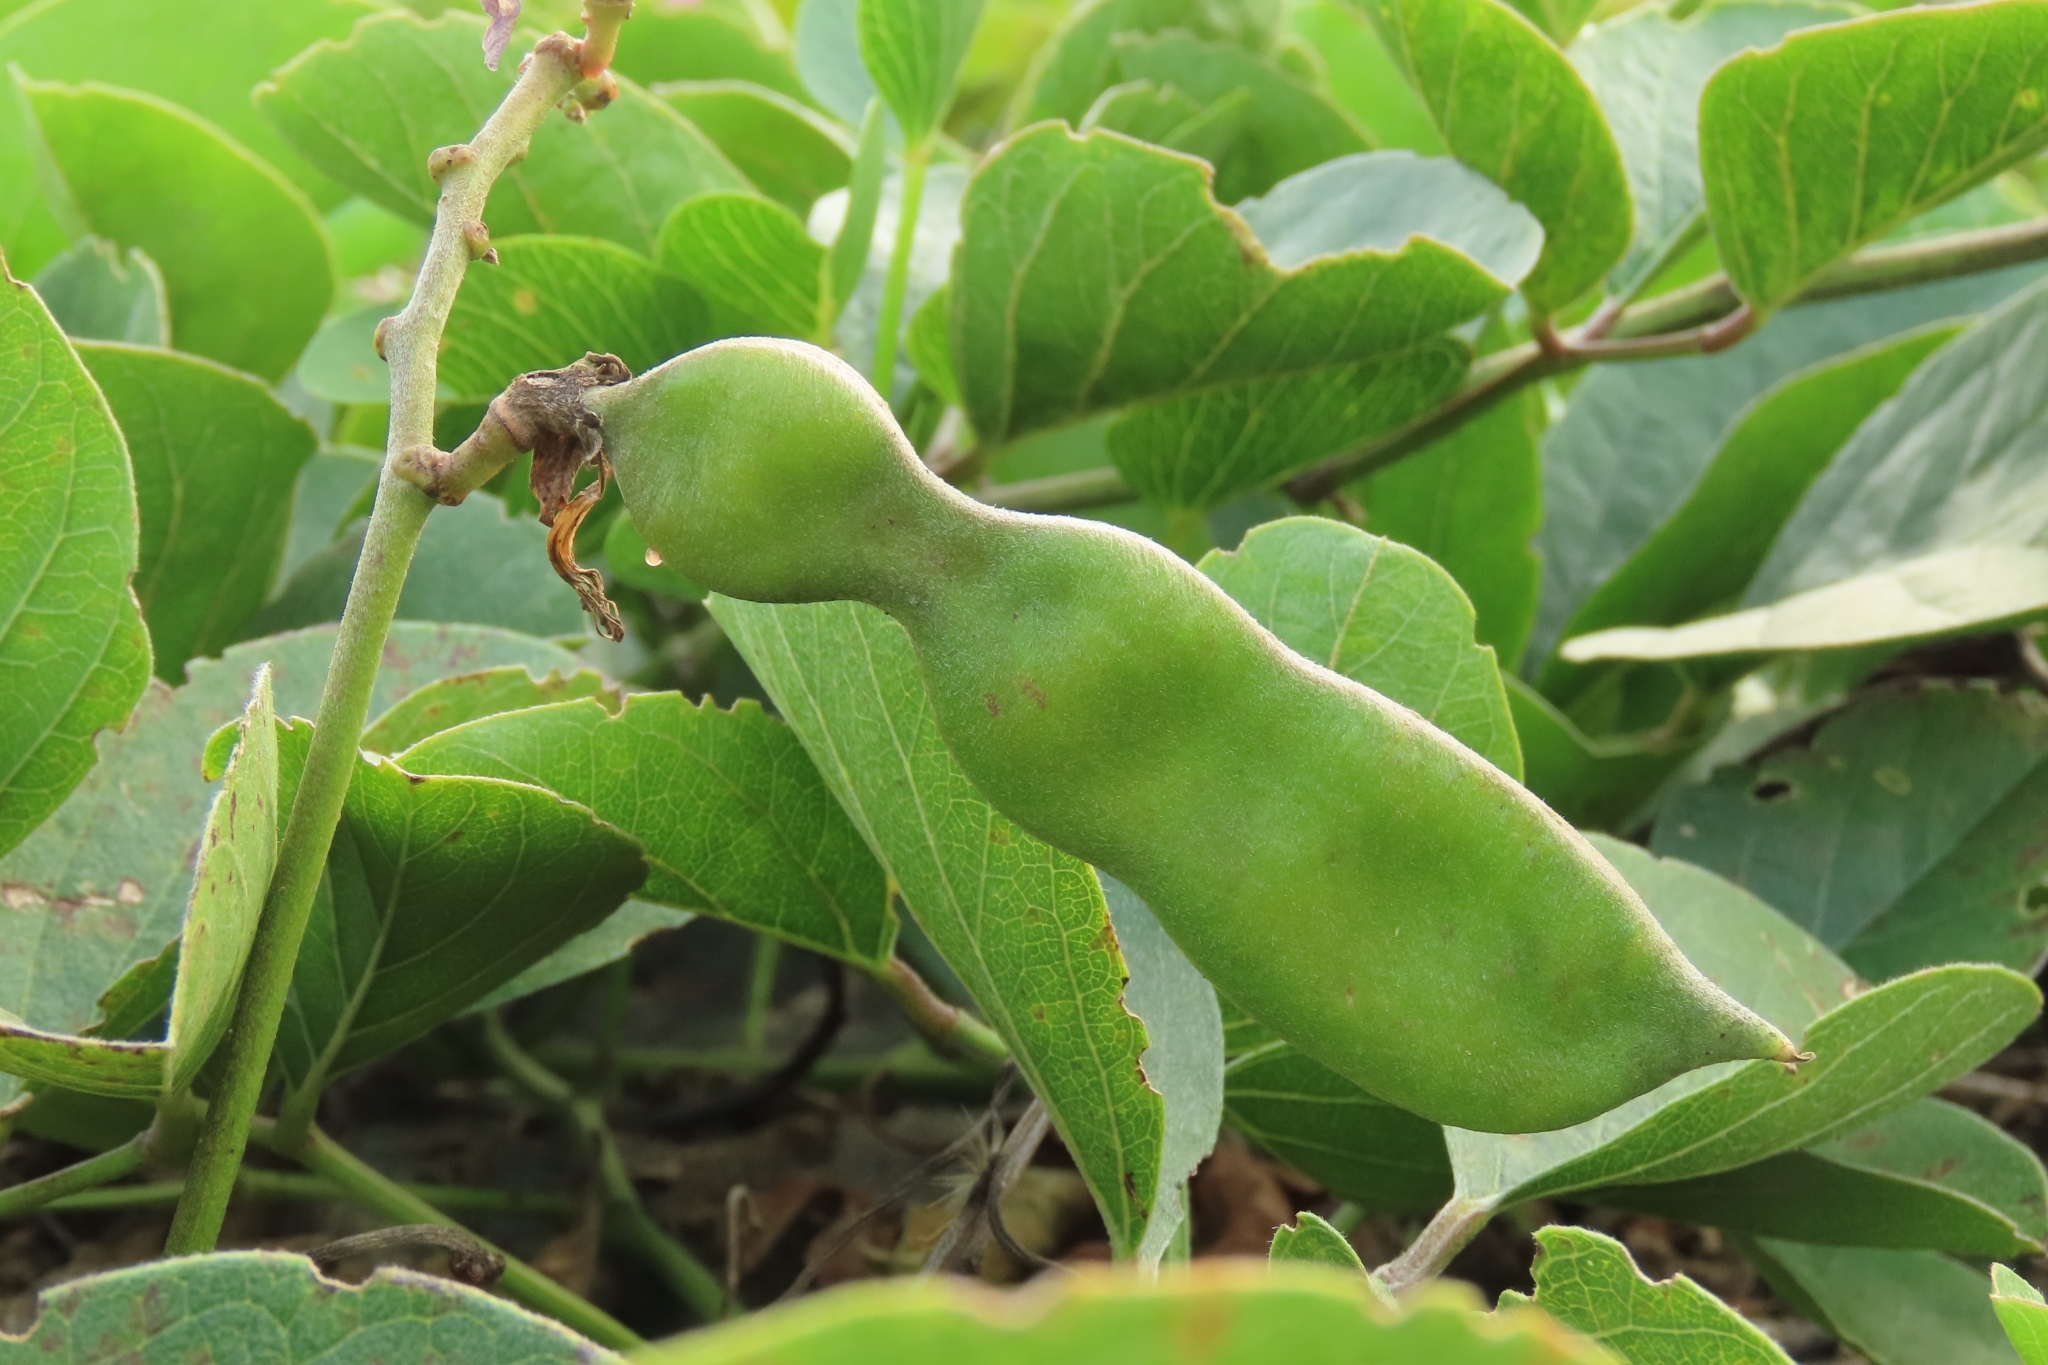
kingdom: Plantae
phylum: Tracheophyta
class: Magnoliopsida
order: Fabales
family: Fabaceae
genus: Canavalia
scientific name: Canavalia rosea
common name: Beach-bean
